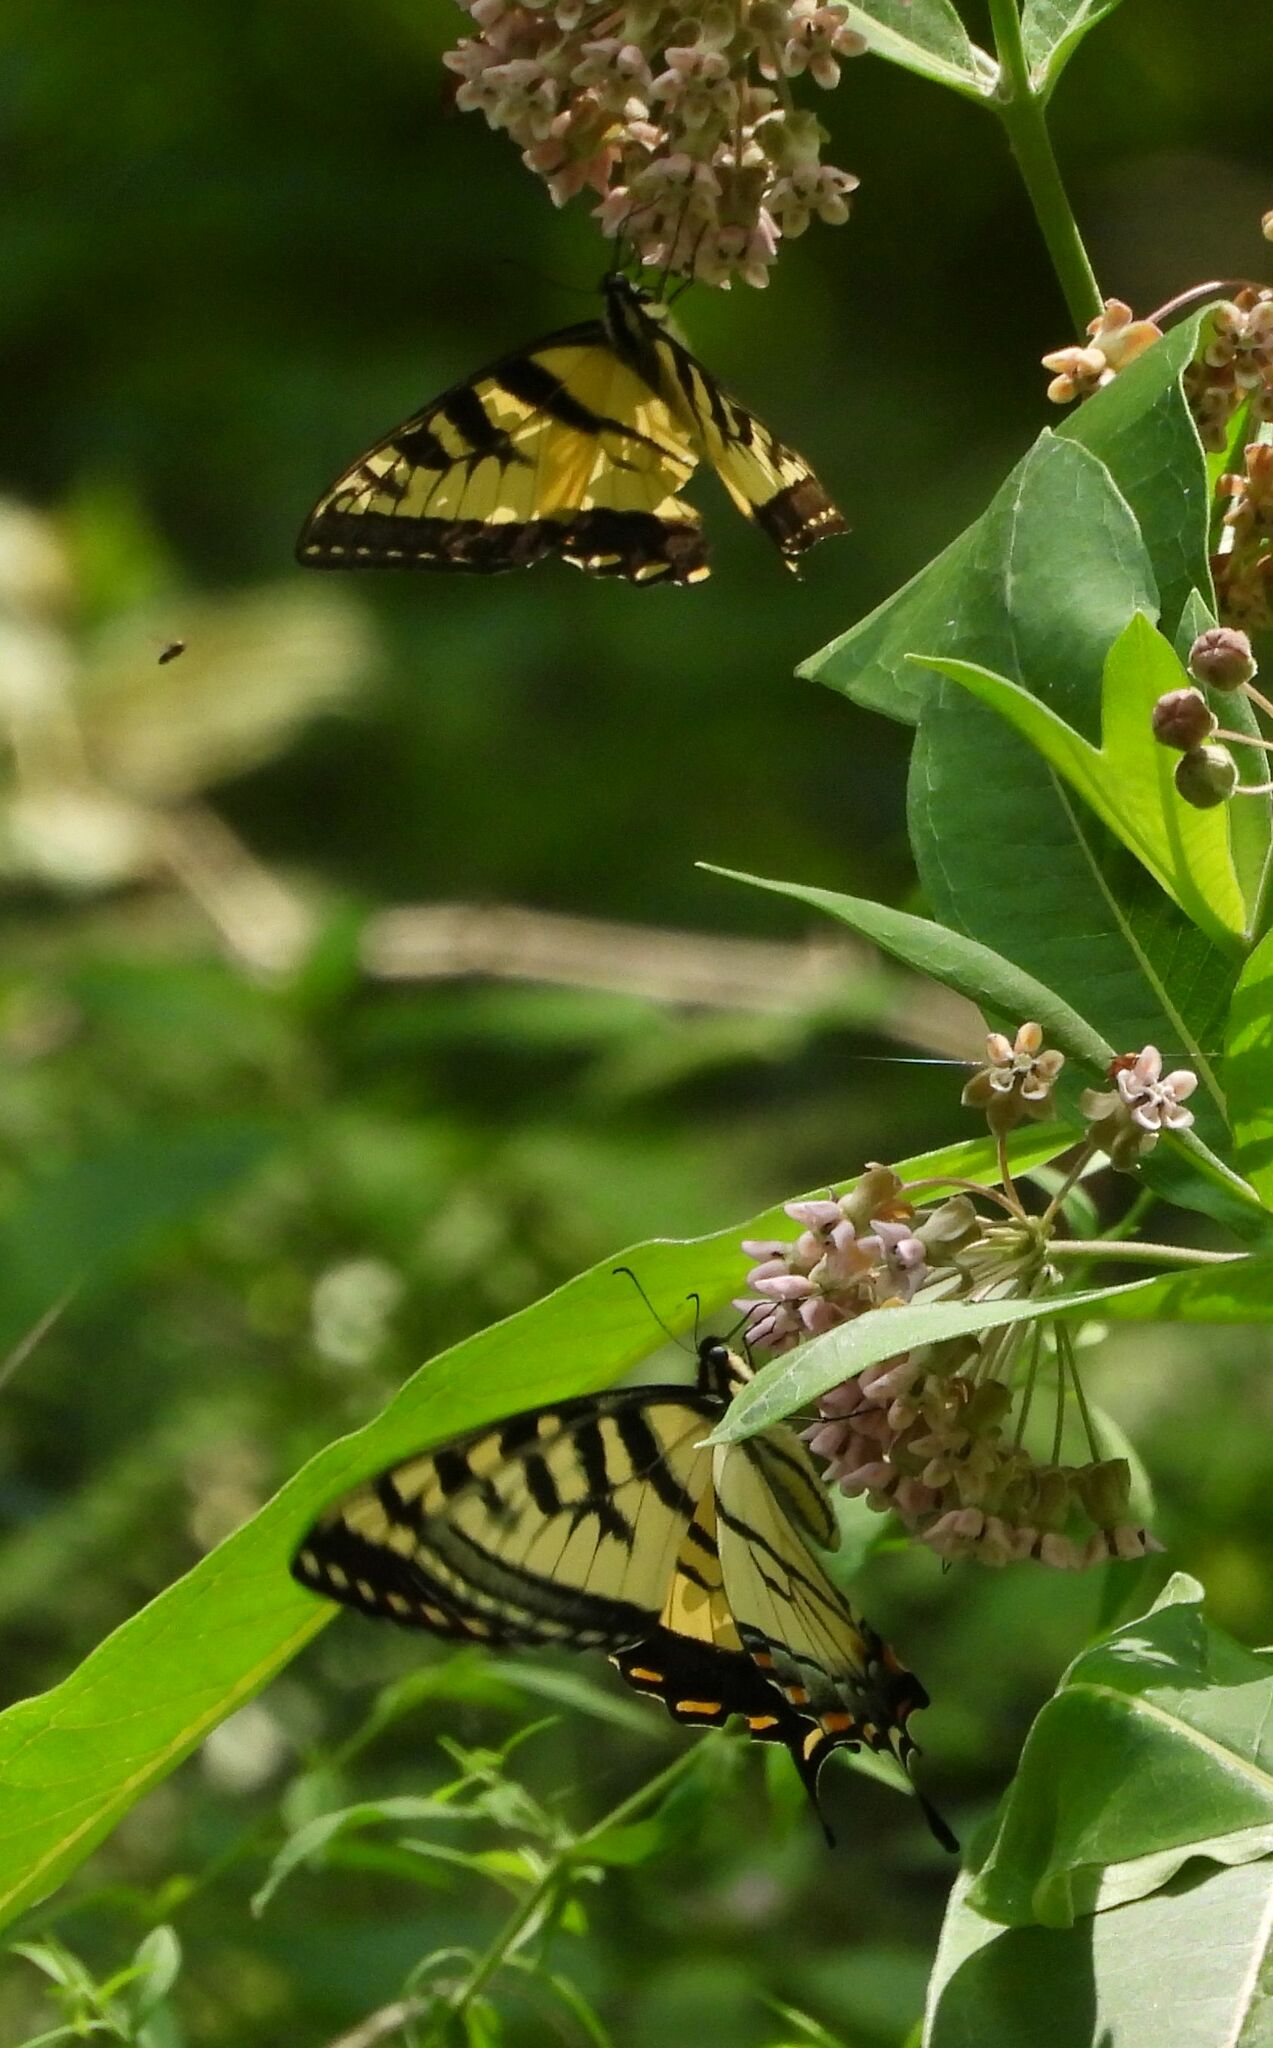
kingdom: Animalia
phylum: Arthropoda
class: Insecta
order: Lepidoptera
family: Papilionidae
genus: Papilio
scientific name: Papilio
